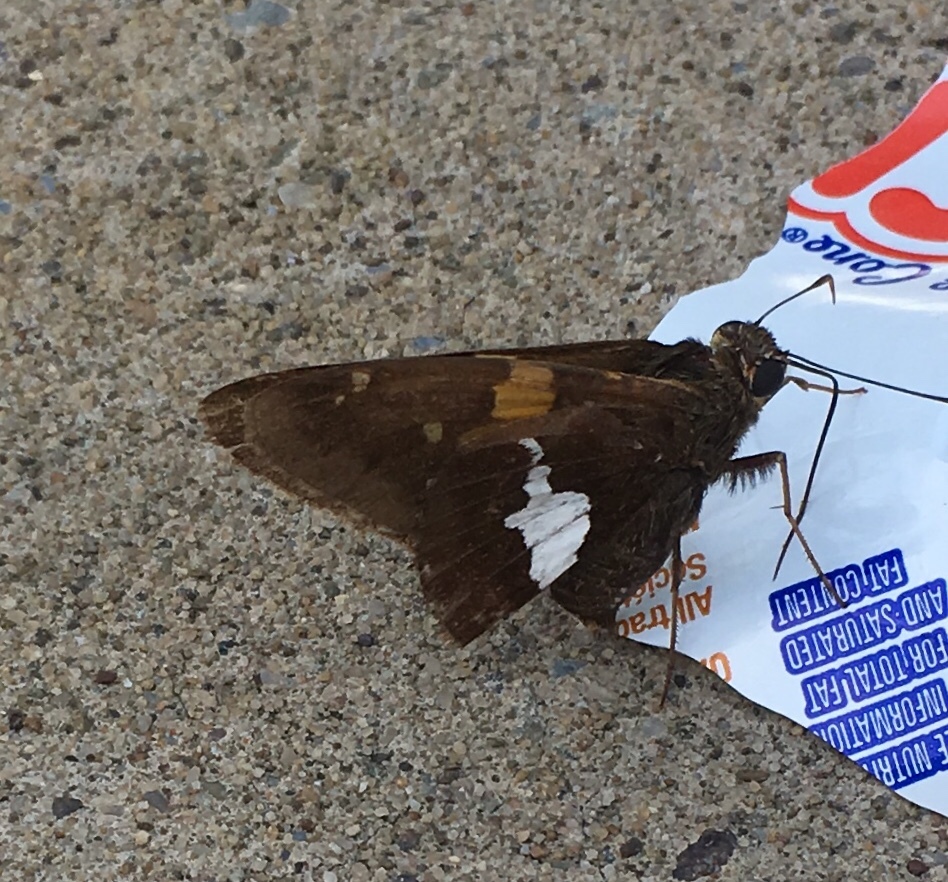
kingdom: Animalia
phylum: Arthropoda
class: Insecta
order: Lepidoptera
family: Hesperiidae
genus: Epargyreus
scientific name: Epargyreus clarus
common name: Silver-spotted skipper
